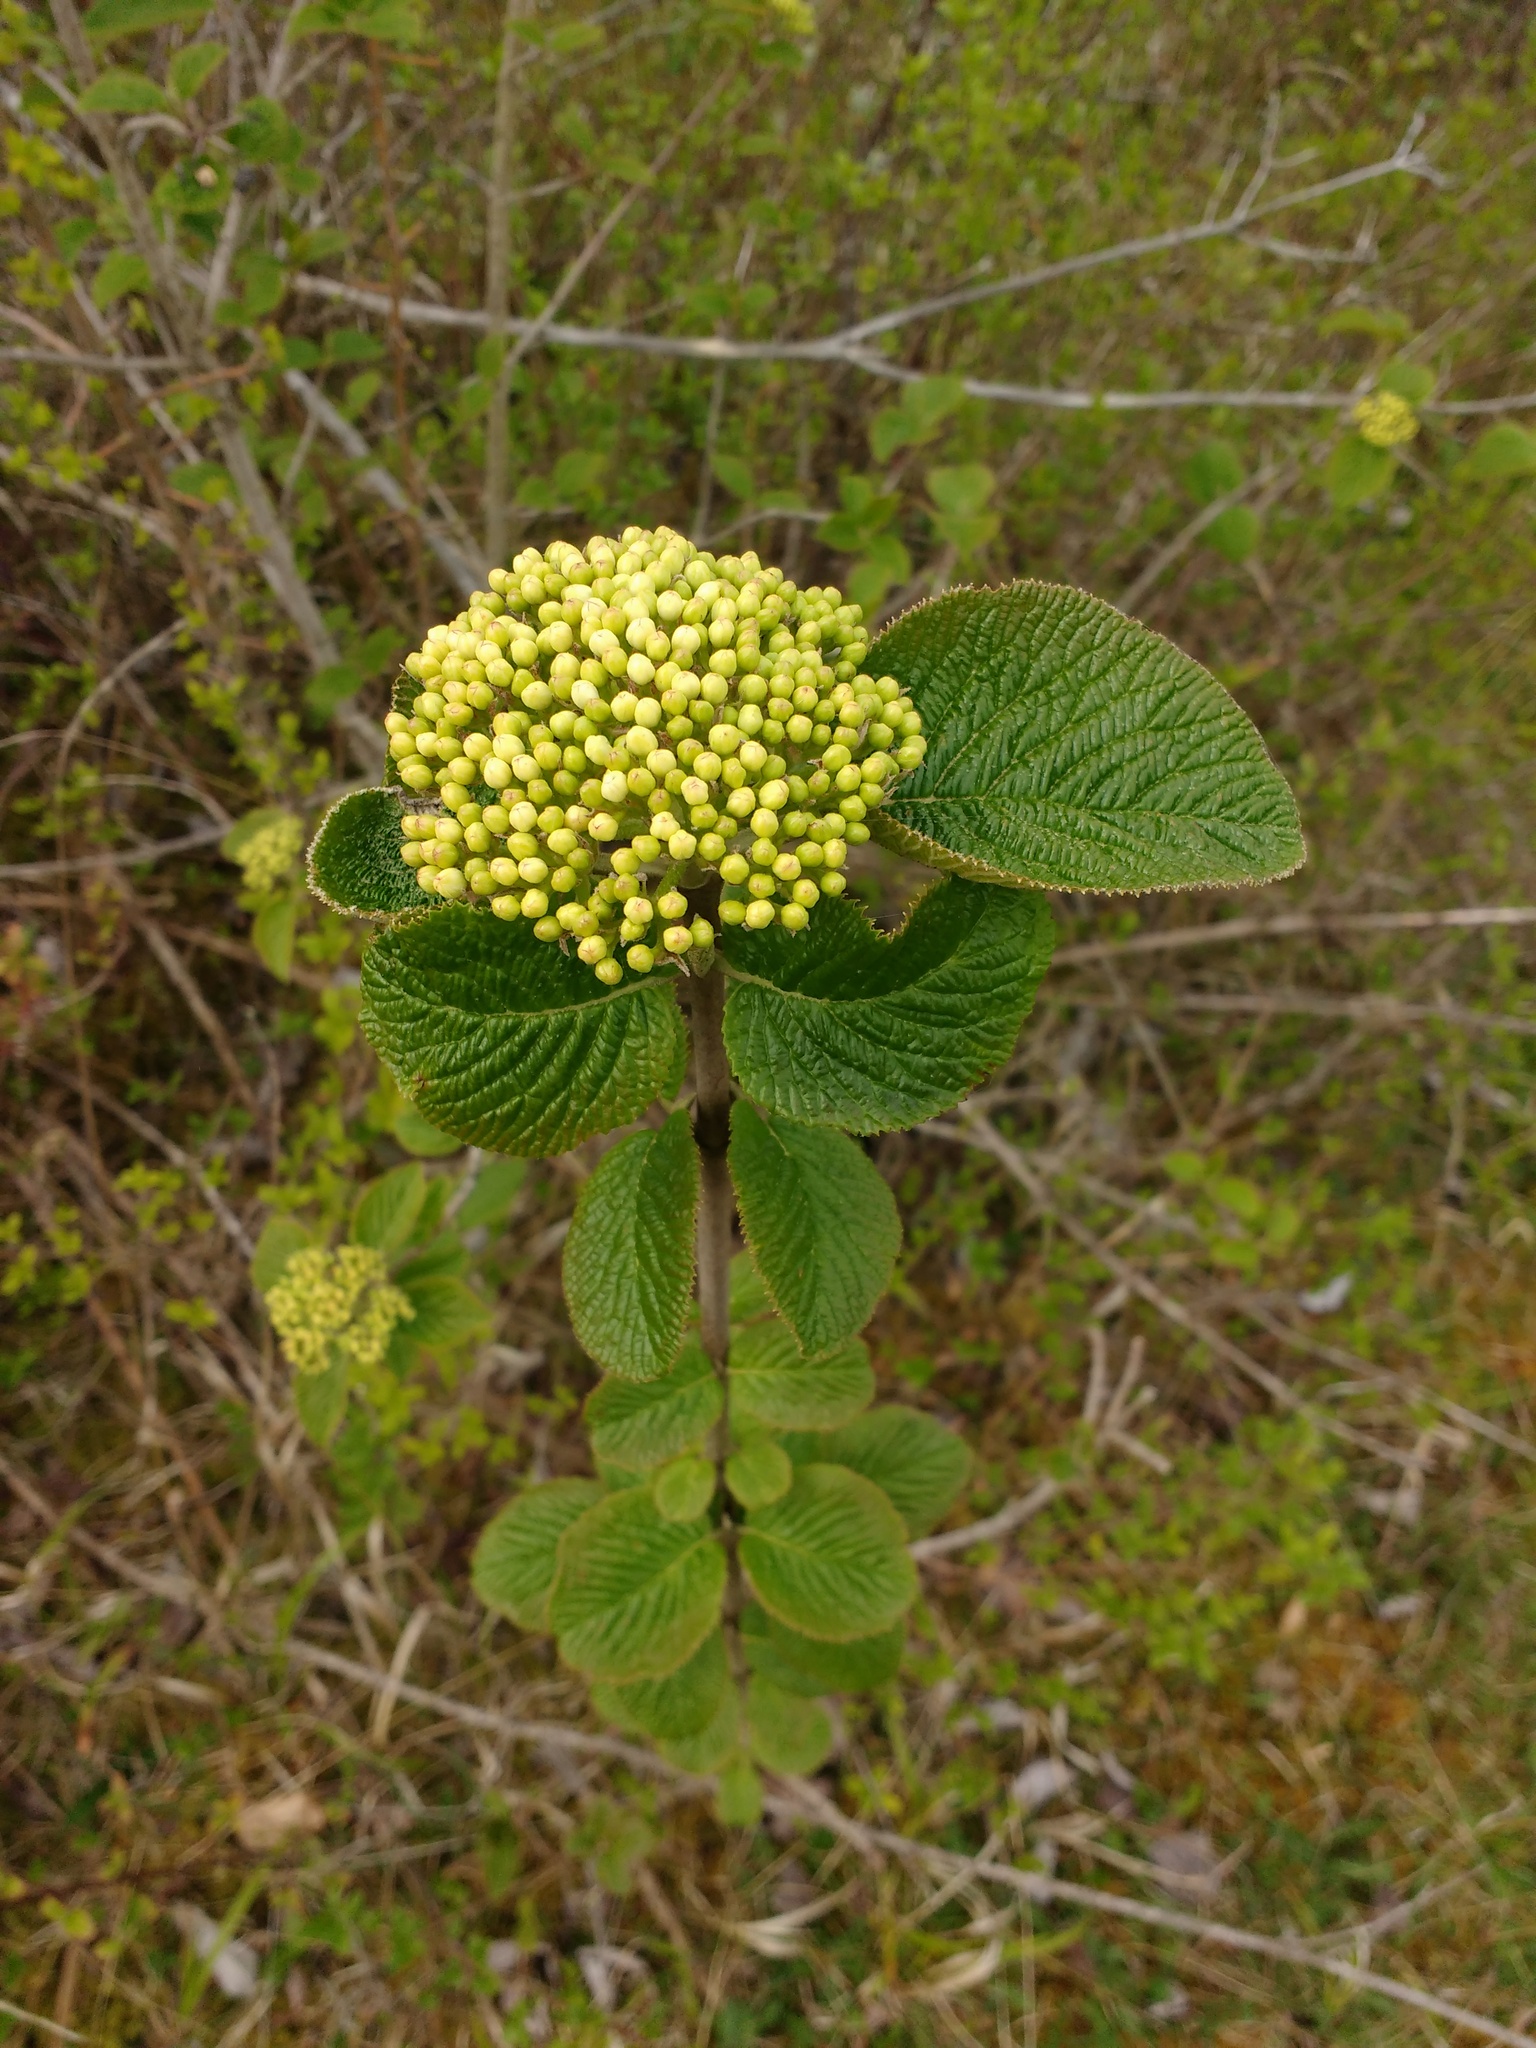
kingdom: Plantae
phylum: Tracheophyta
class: Magnoliopsida
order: Dipsacales
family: Viburnaceae
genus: Viburnum
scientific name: Viburnum lantana
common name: Wayfaring tree
